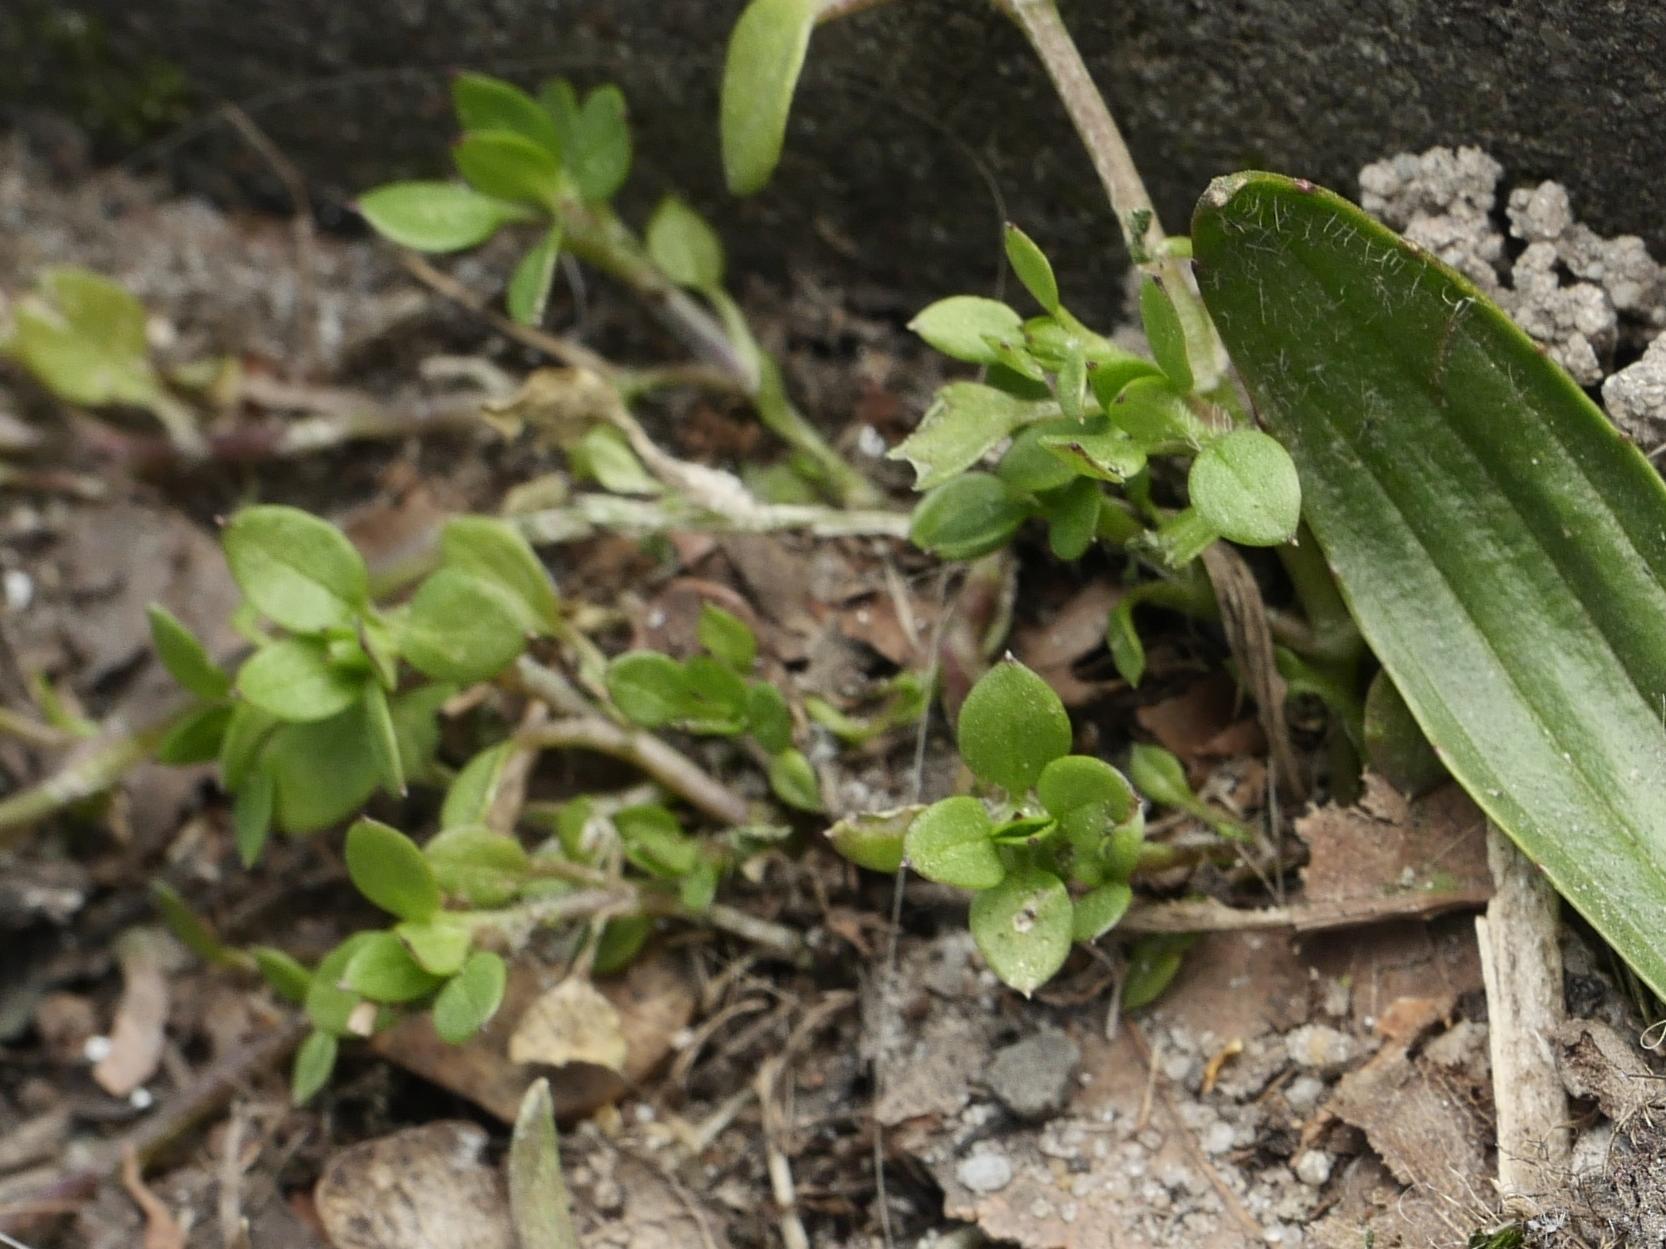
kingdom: Plantae
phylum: Tracheophyta
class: Magnoliopsida
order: Caryophyllales
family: Caryophyllaceae
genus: Stellaria
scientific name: Stellaria media
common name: Common chickweed
